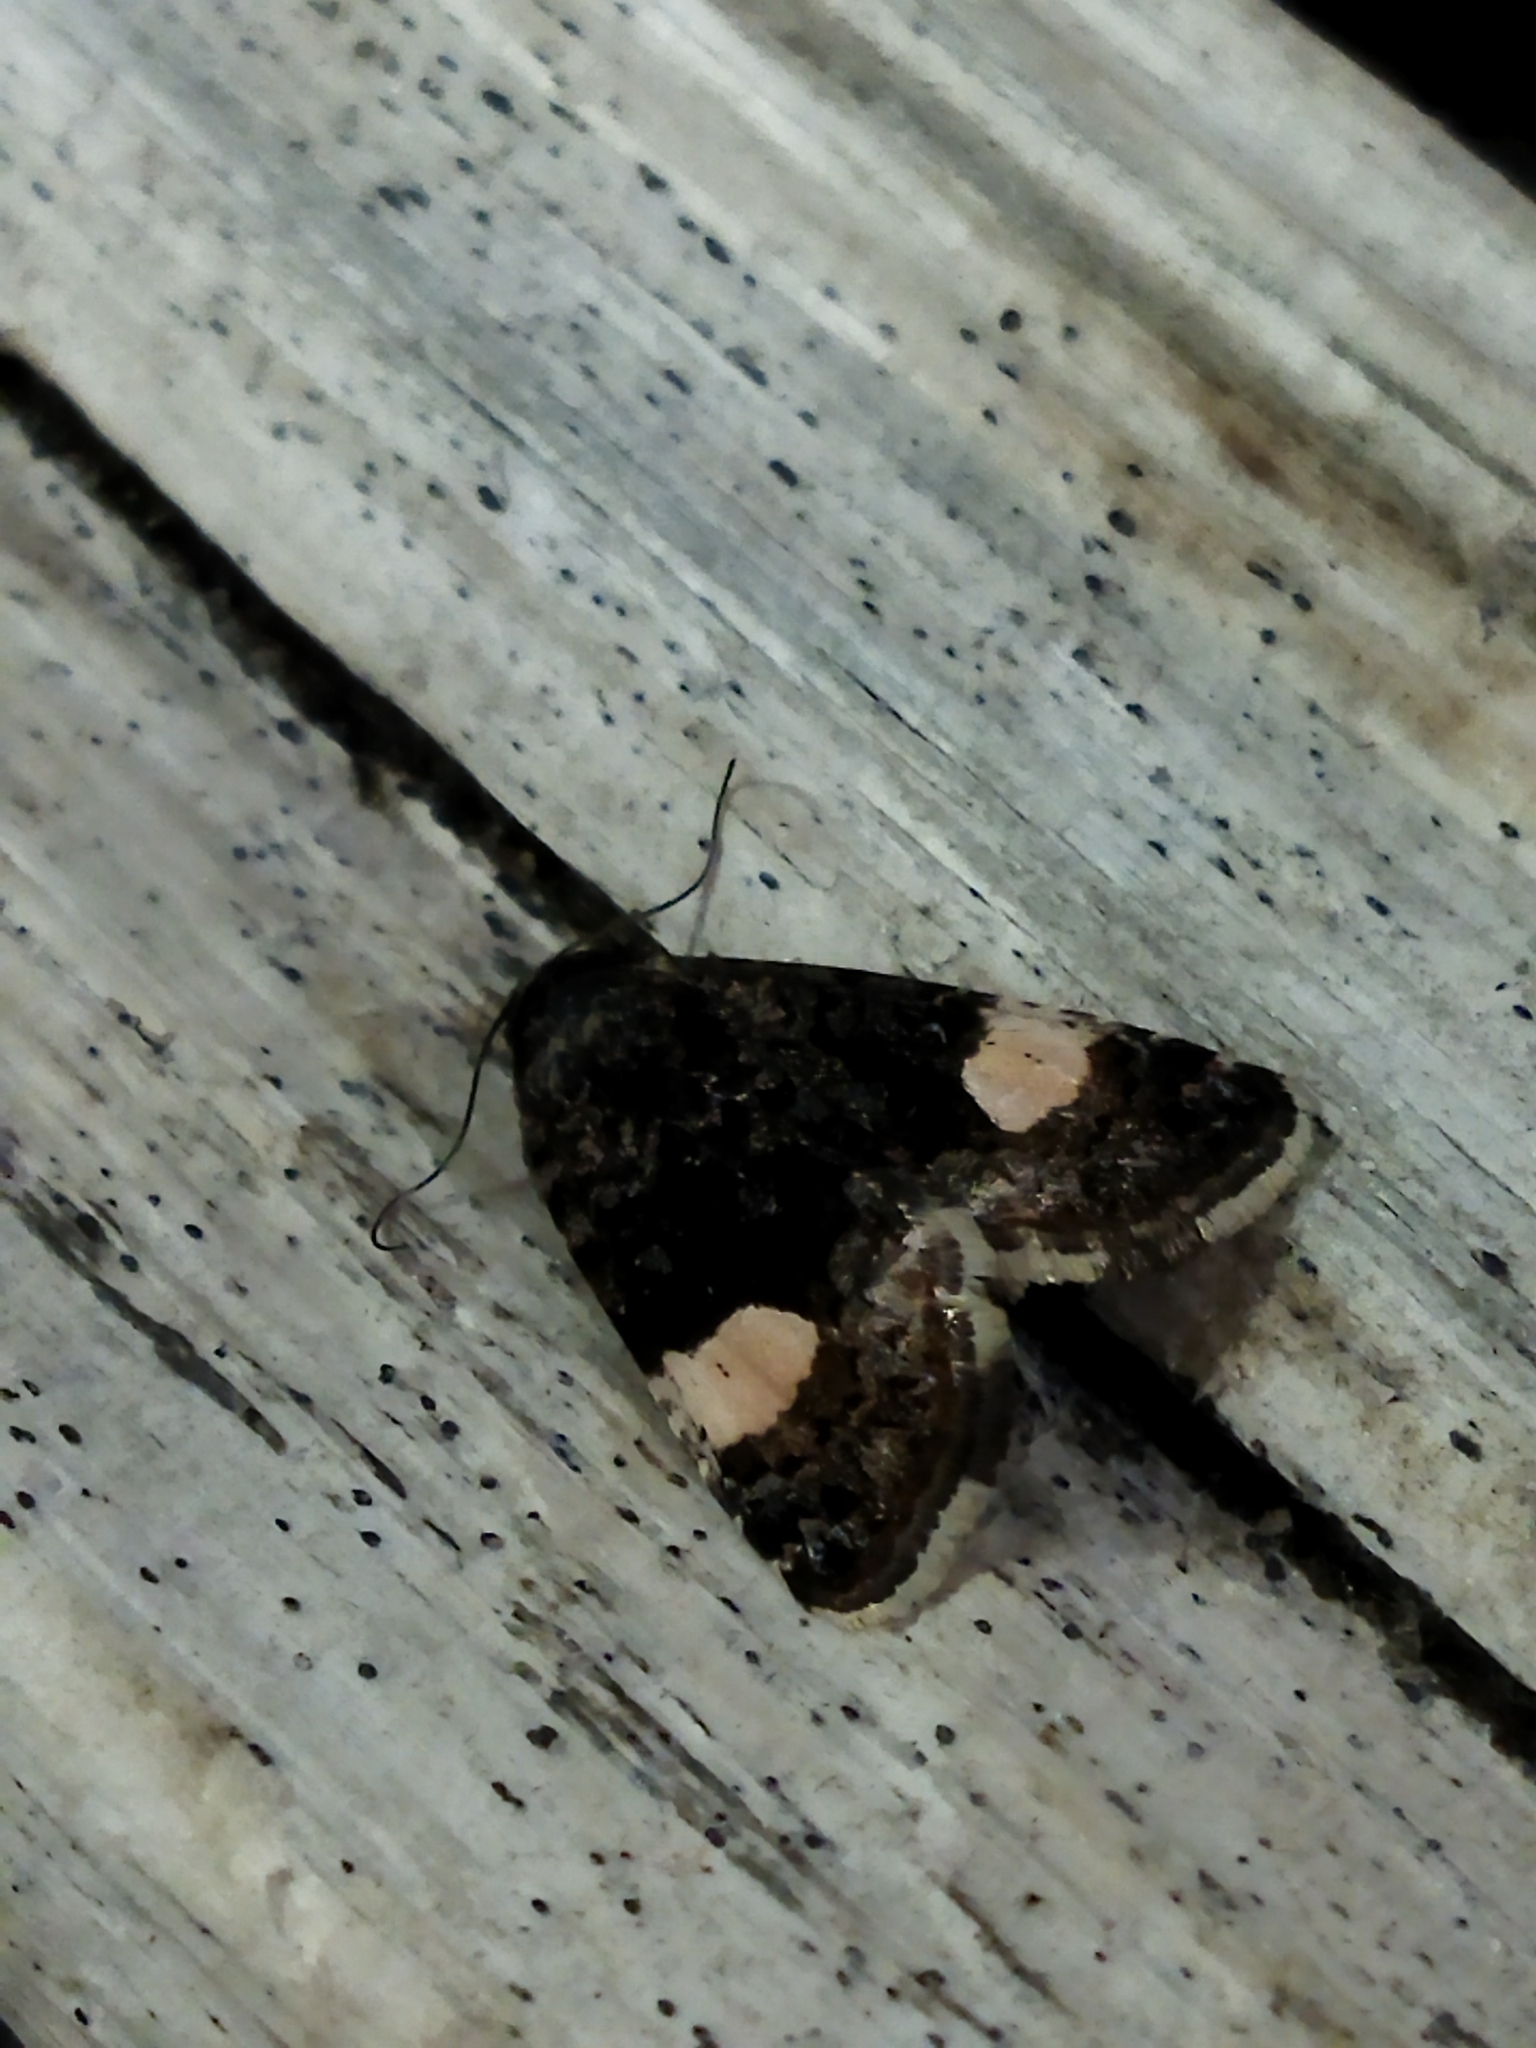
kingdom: Animalia
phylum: Arthropoda
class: Insecta
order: Lepidoptera
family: Erebidae
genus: Tyta
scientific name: Tyta luctuosa
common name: Four-spotted
